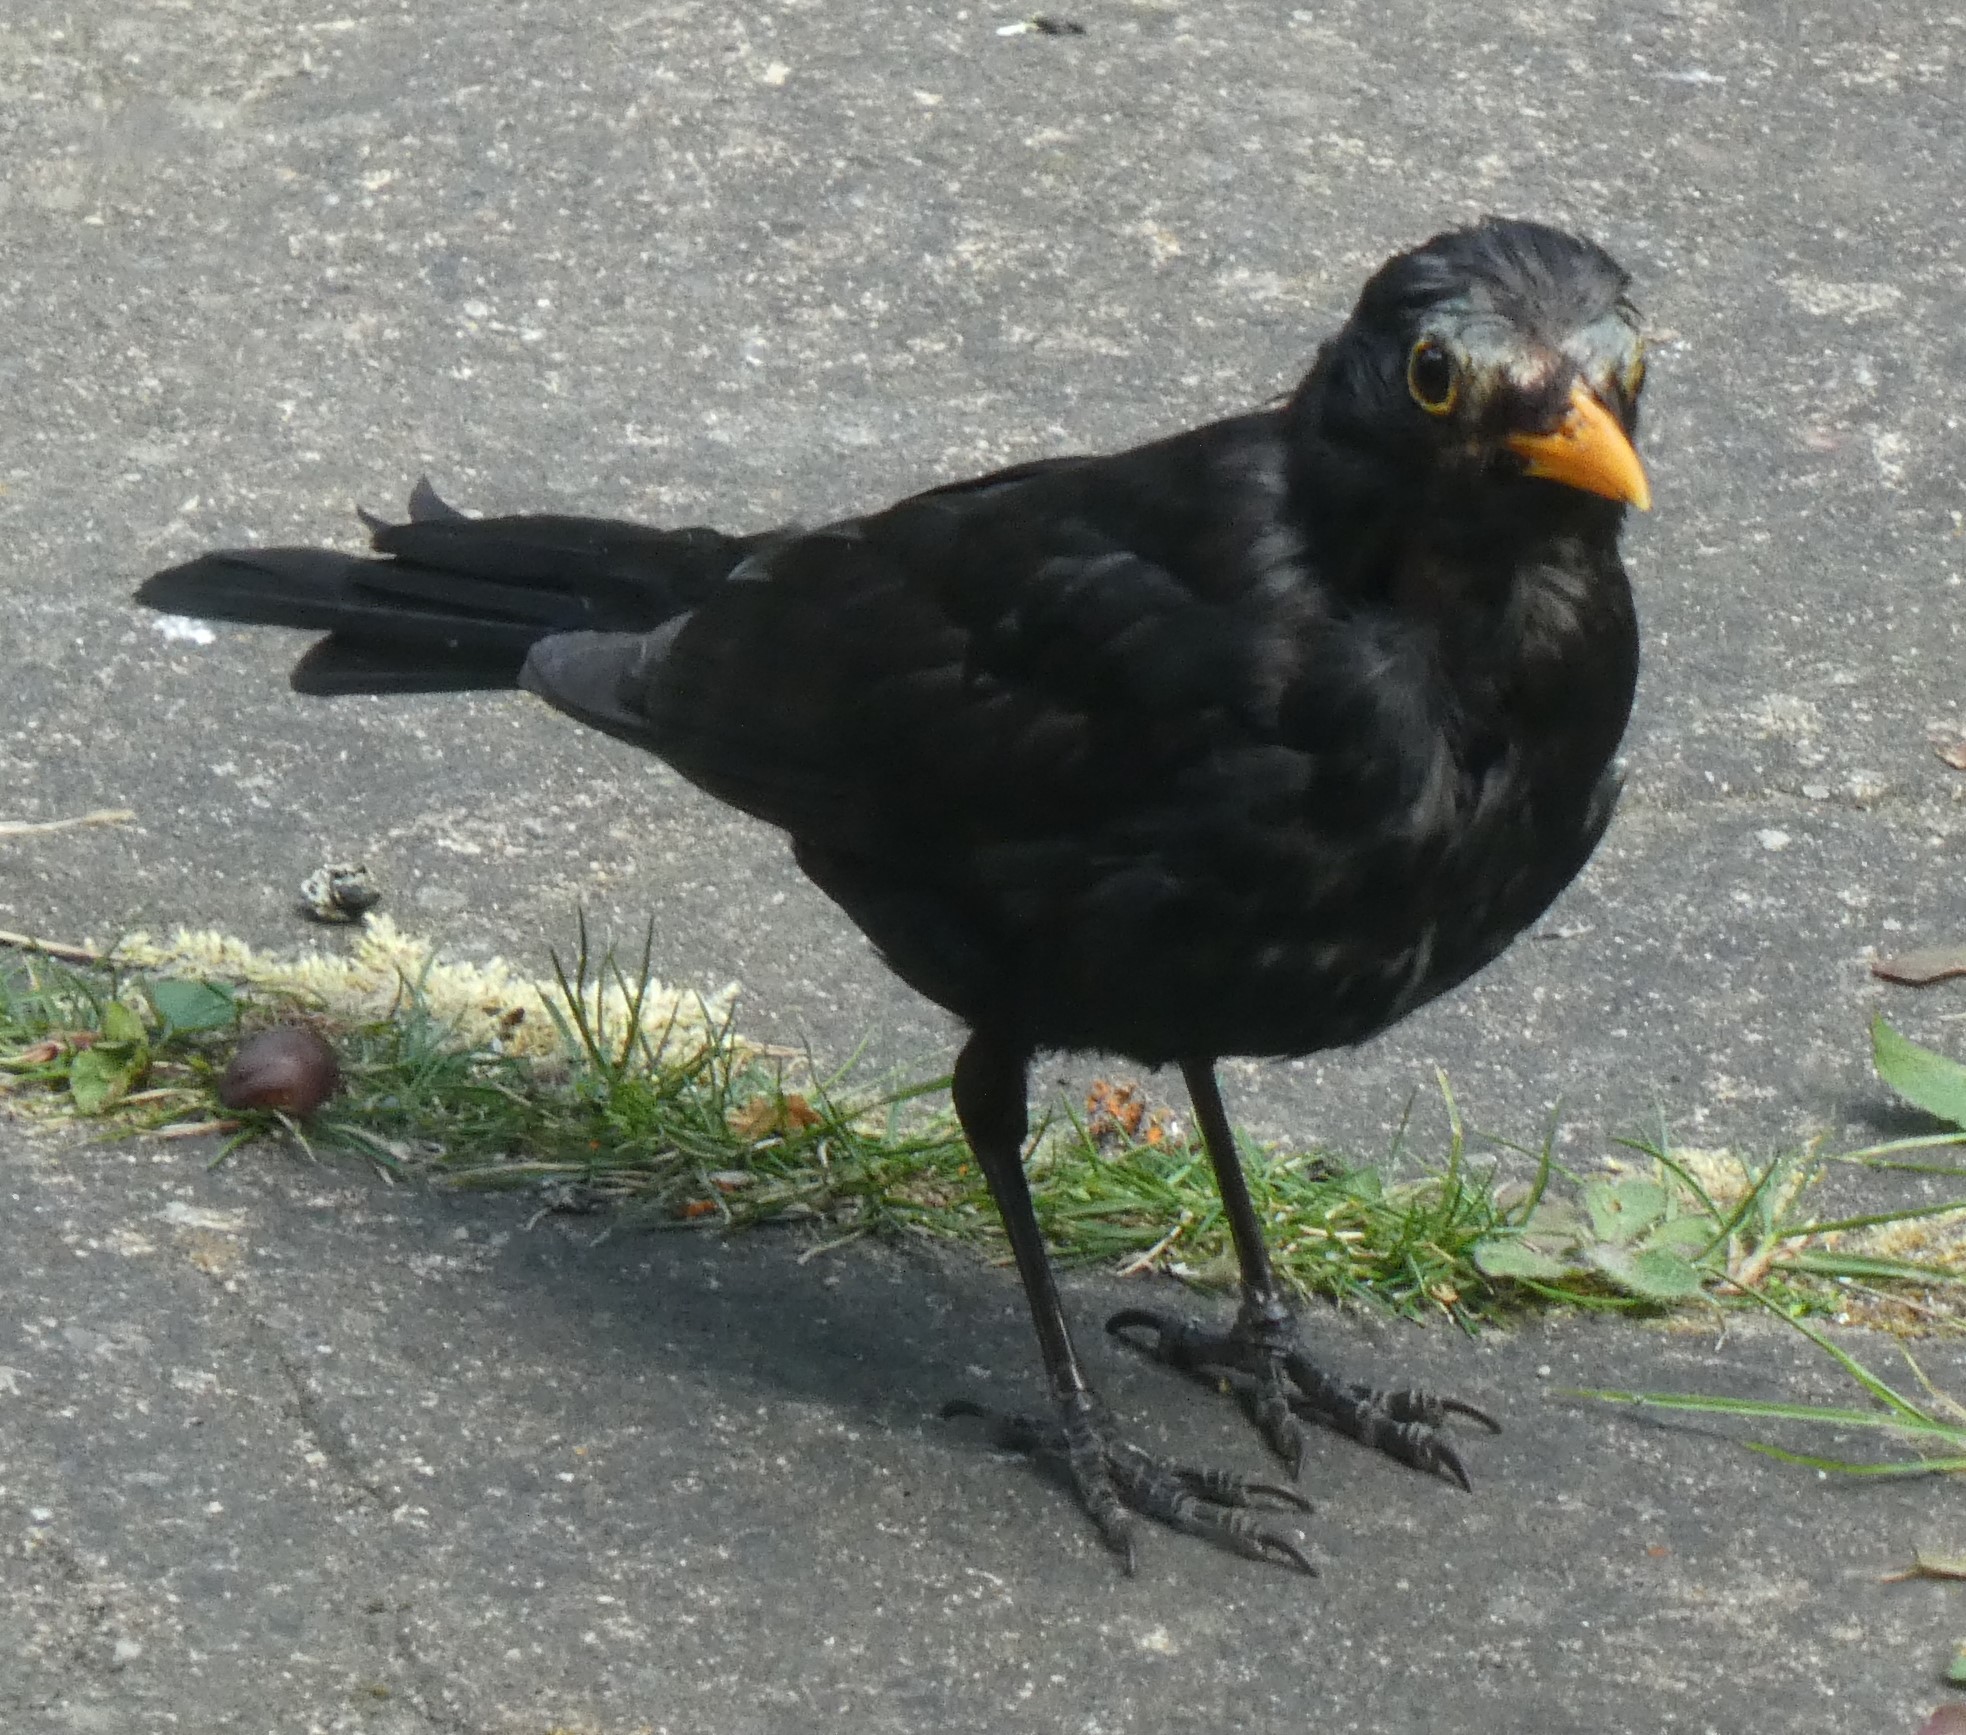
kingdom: Animalia
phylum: Chordata
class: Aves
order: Passeriformes
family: Turdidae
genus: Turdus
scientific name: Turdus merula
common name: Common blackbird
